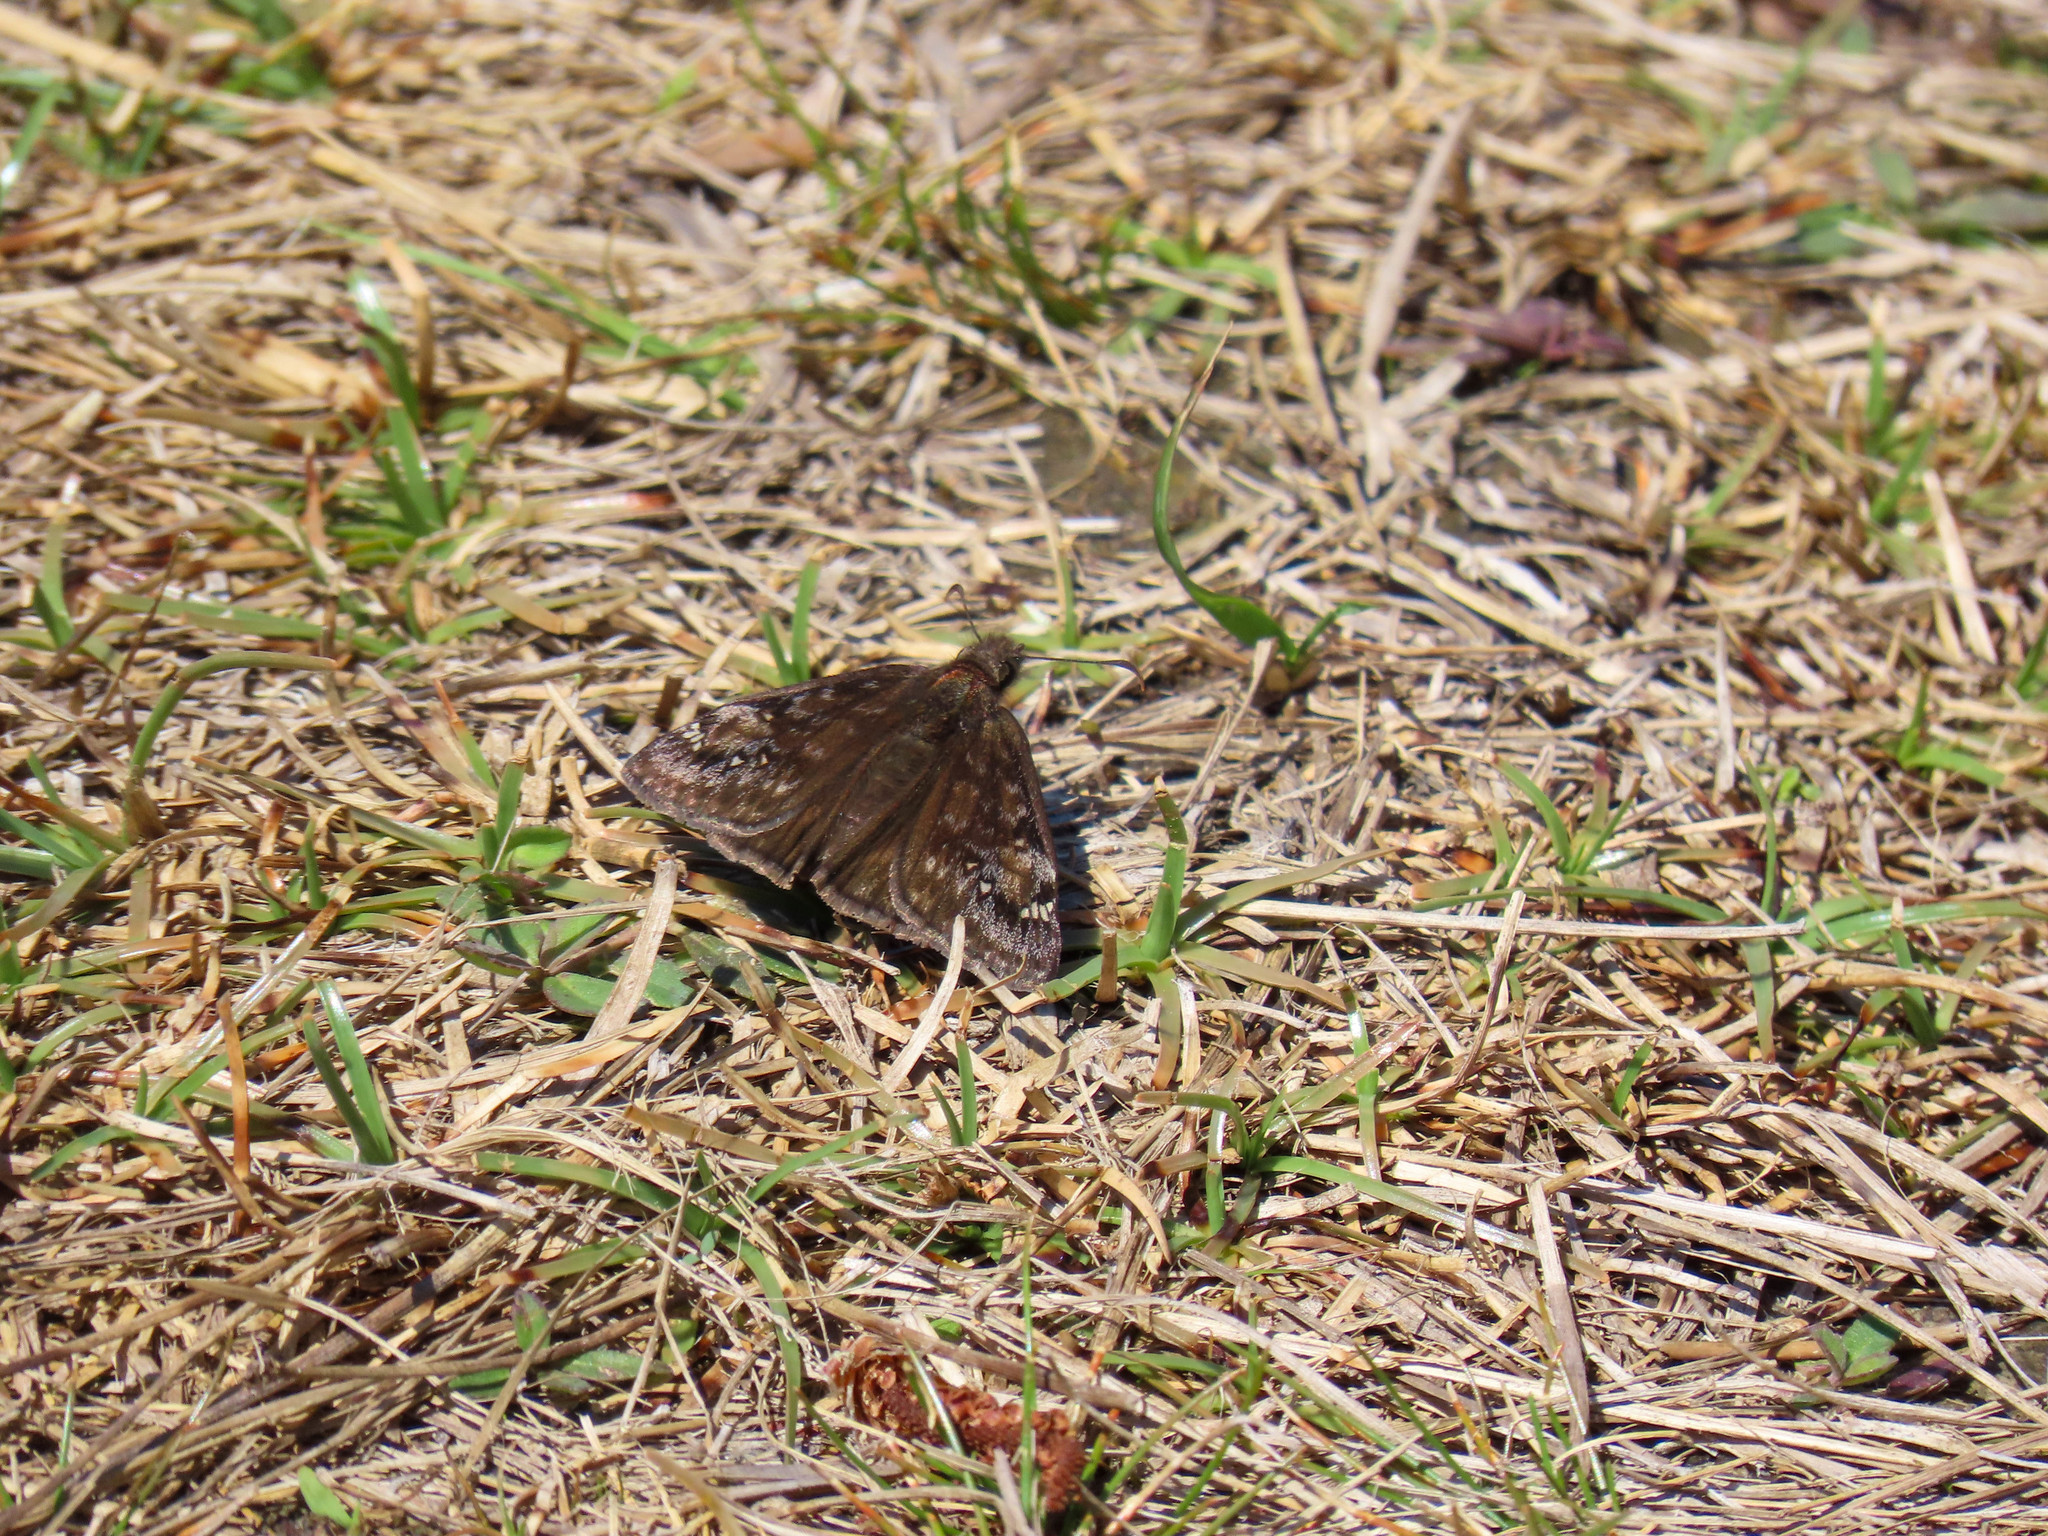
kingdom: Animalia
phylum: Arthropoda
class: Insecta
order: Lepidoptera
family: Hesperiidae
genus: Erynnis
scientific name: Erynnis juvenalis
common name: Juvenal's duskywing
